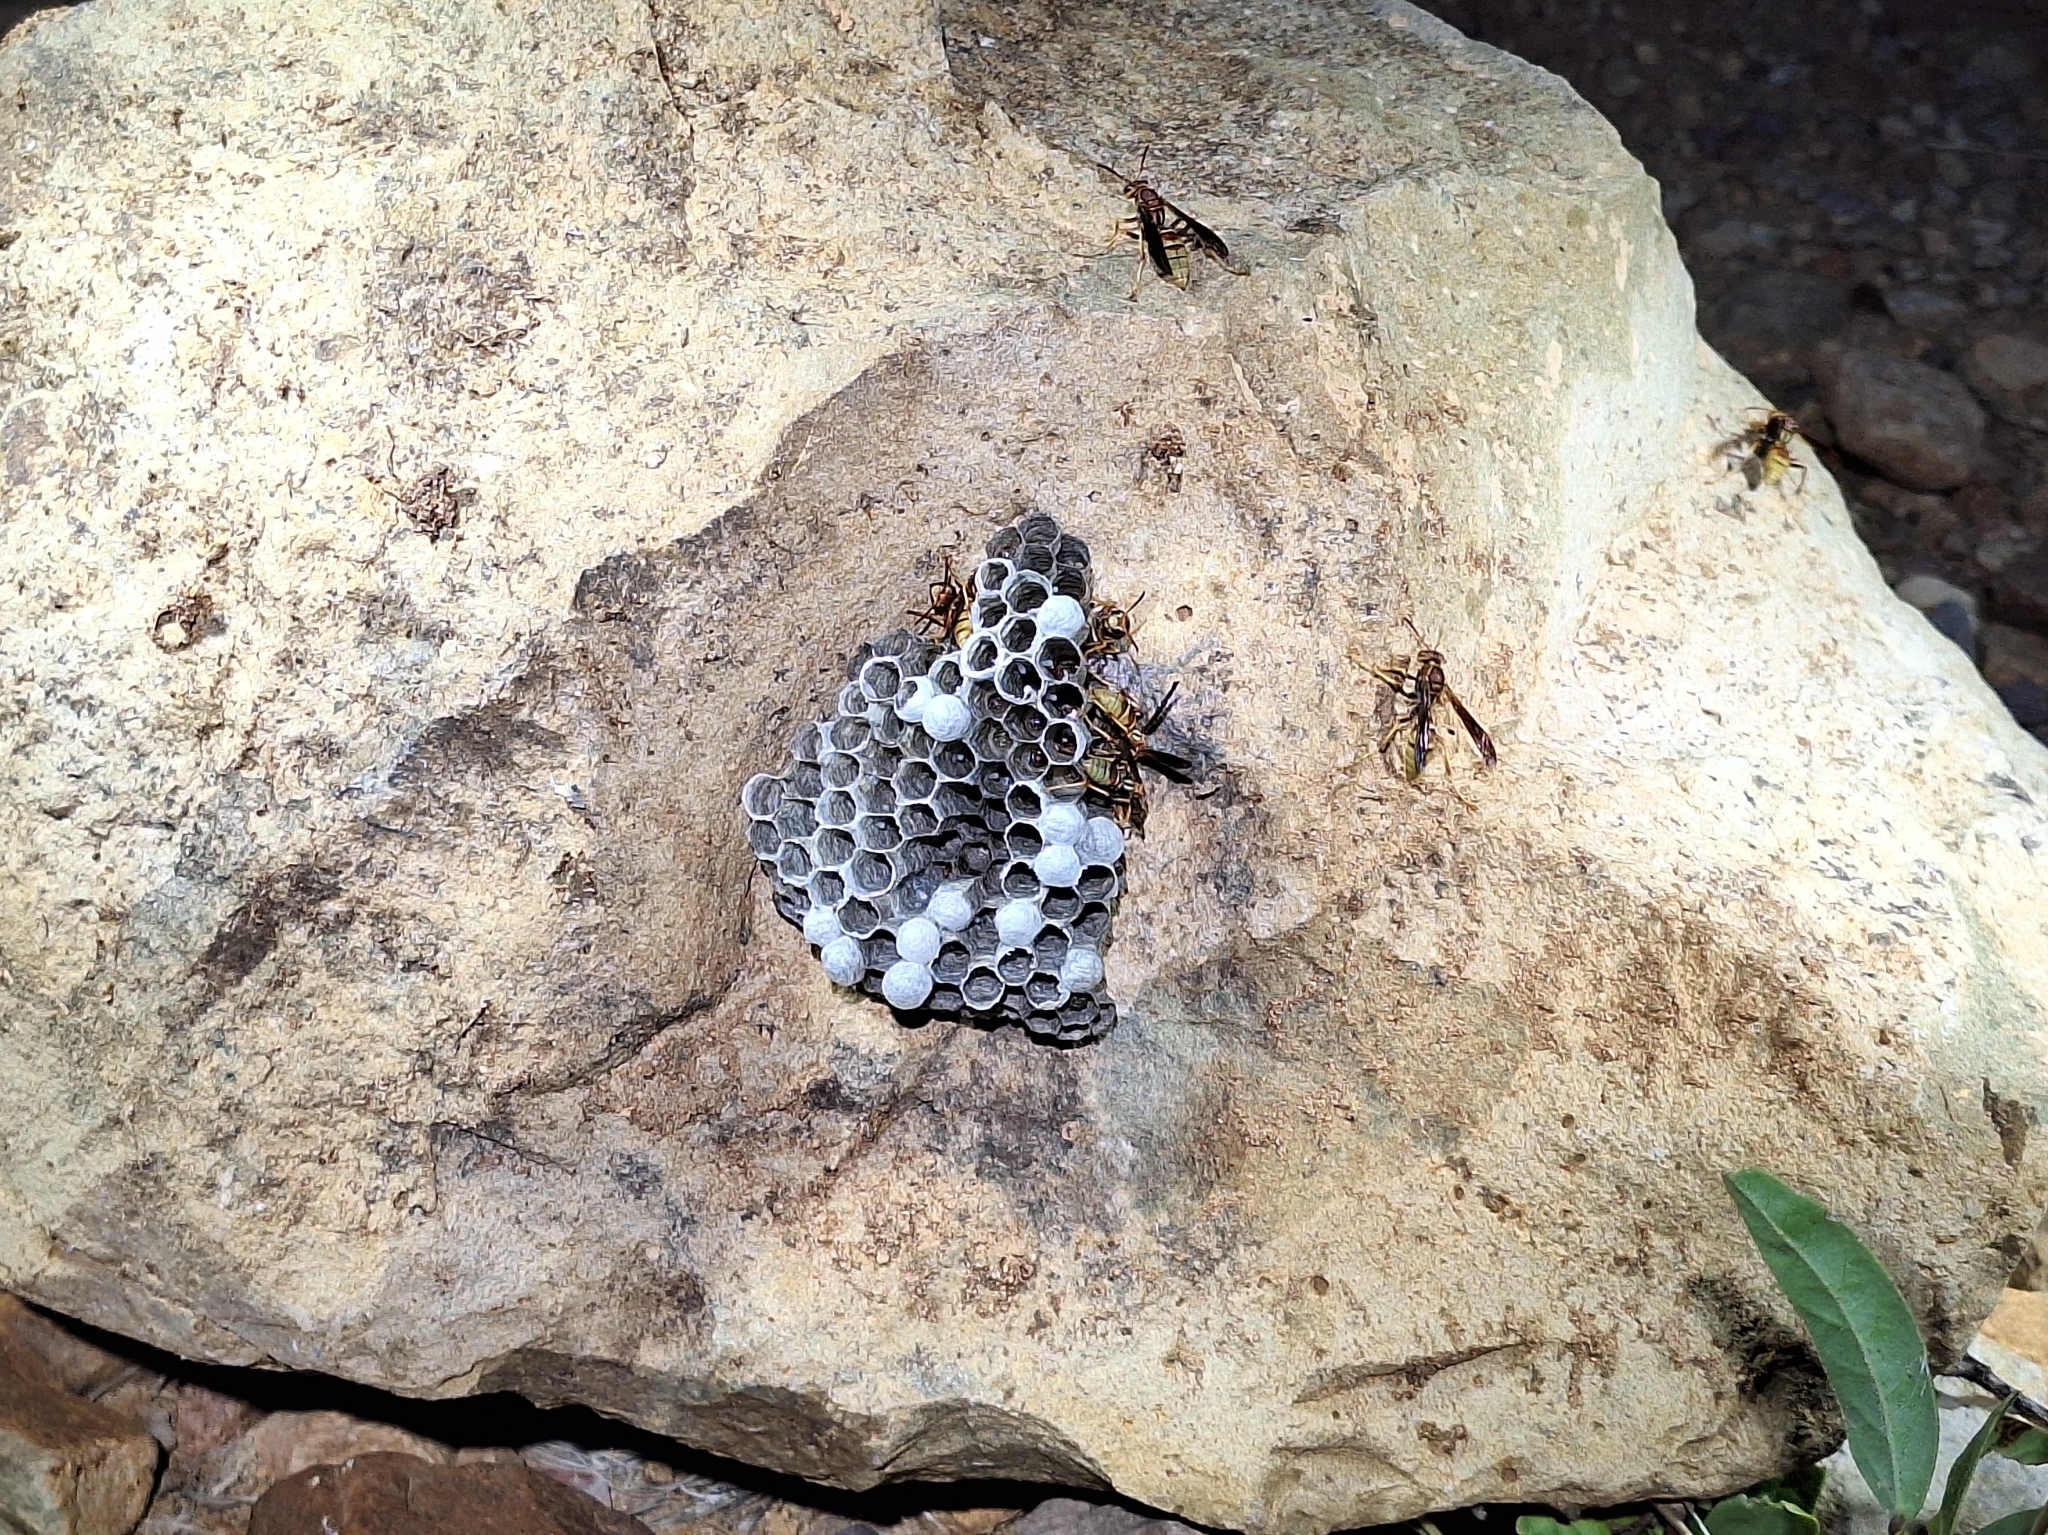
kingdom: Animalia
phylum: Arthropoda
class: Insecta
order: Hymenoptera
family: Eumenidae
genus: Polistes
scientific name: Polistes dorsalis
